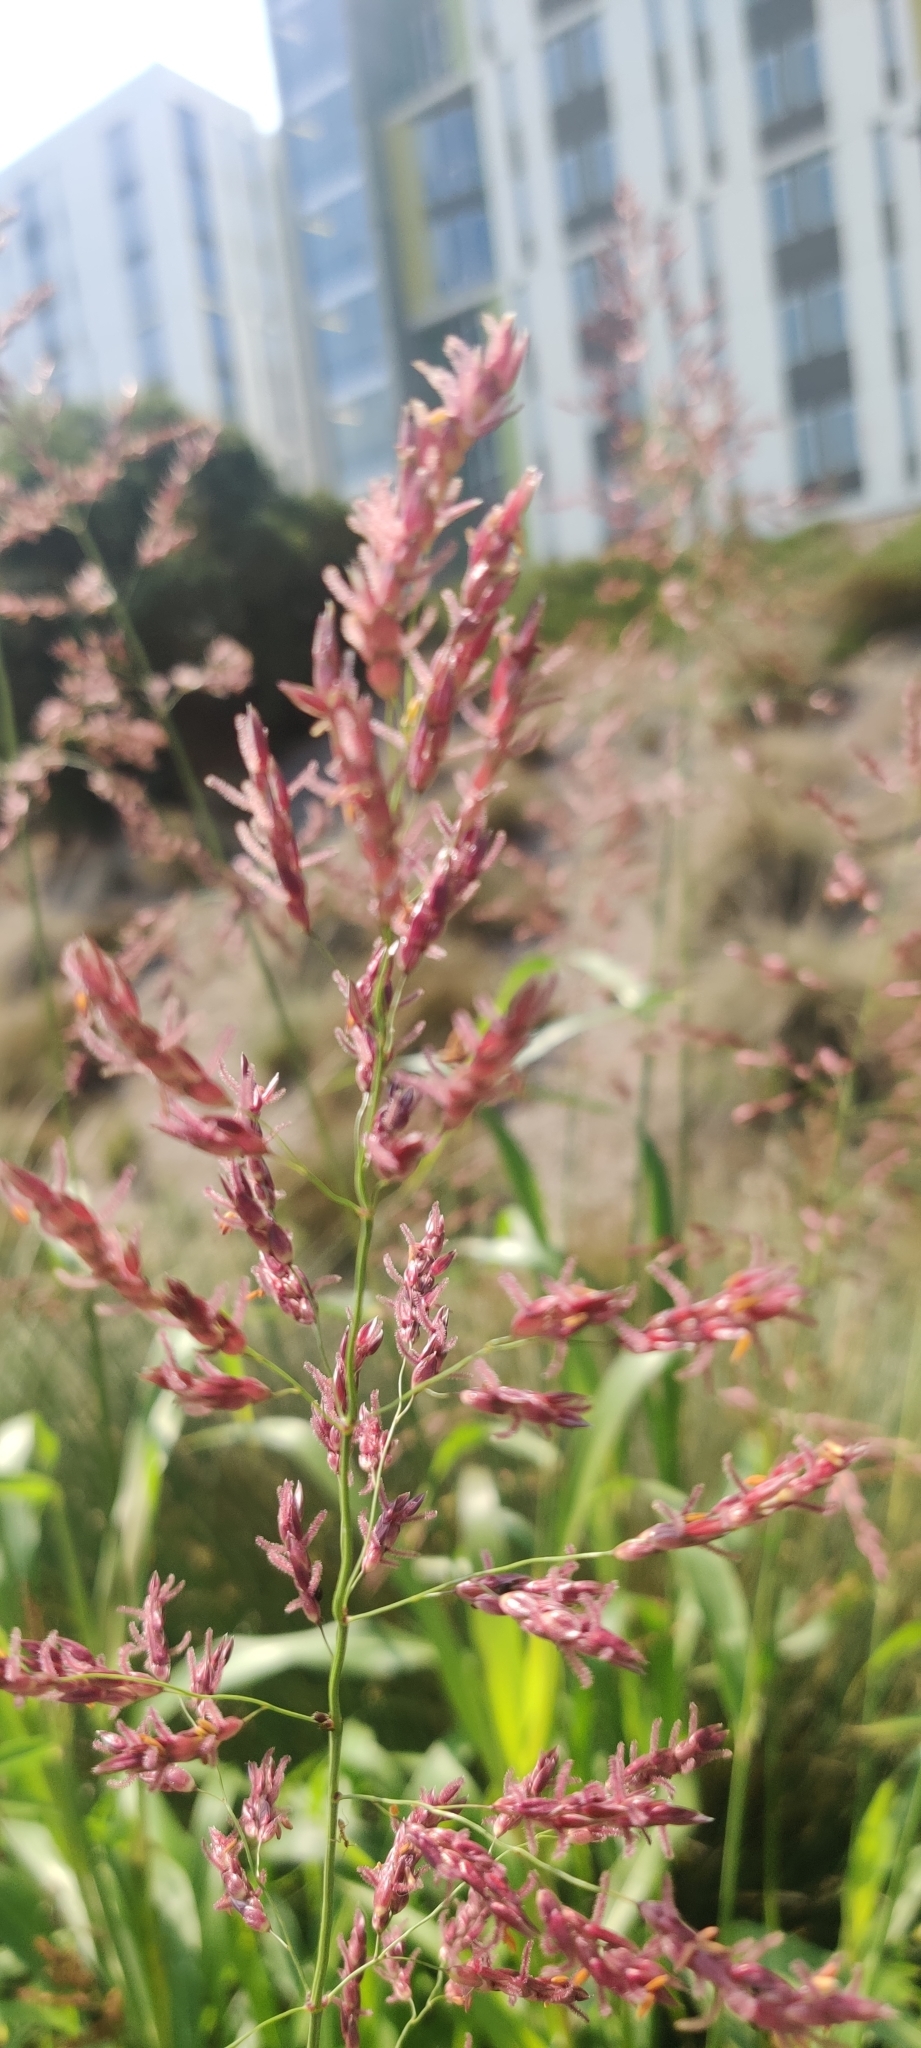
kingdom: Plantae
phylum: Tracheophyta
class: Liliopsida
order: Poales
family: Poaceae
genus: Sorghum
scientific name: Sorghum halepense
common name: Johnson-grass
